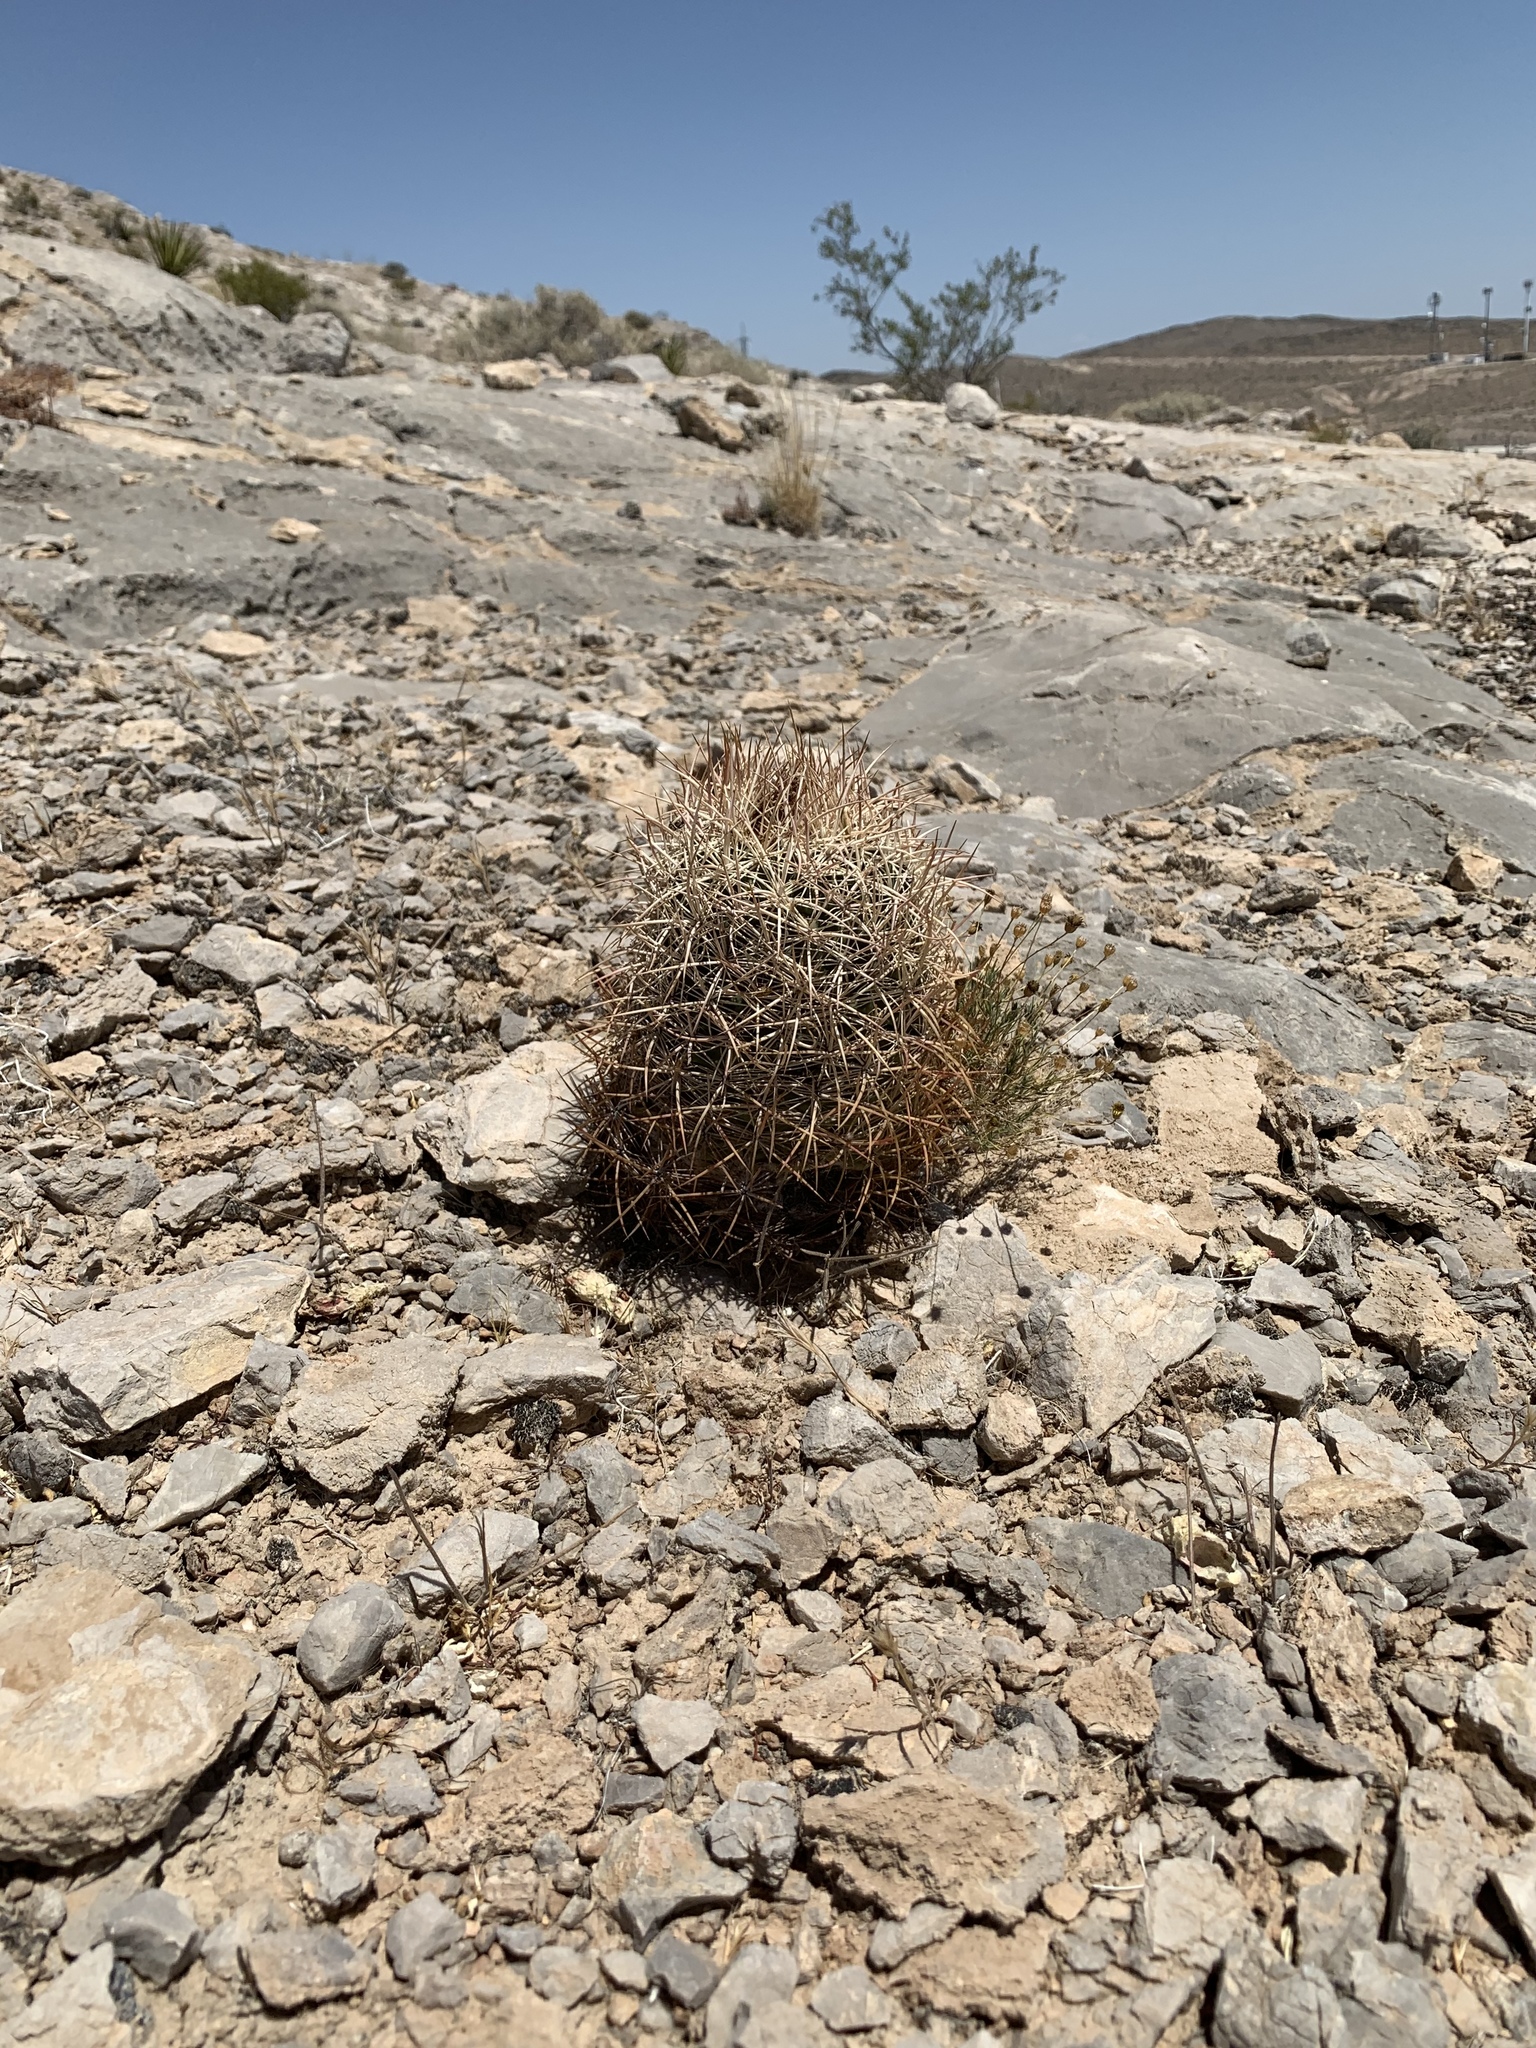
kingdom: Plantae
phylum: Tracheophyta
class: Magnoliopsida
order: Caryophyllales
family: Cactaceae
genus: Sclerocactus
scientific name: Sclerocactus johnsonii
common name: Eight-spine fishhook cactus
